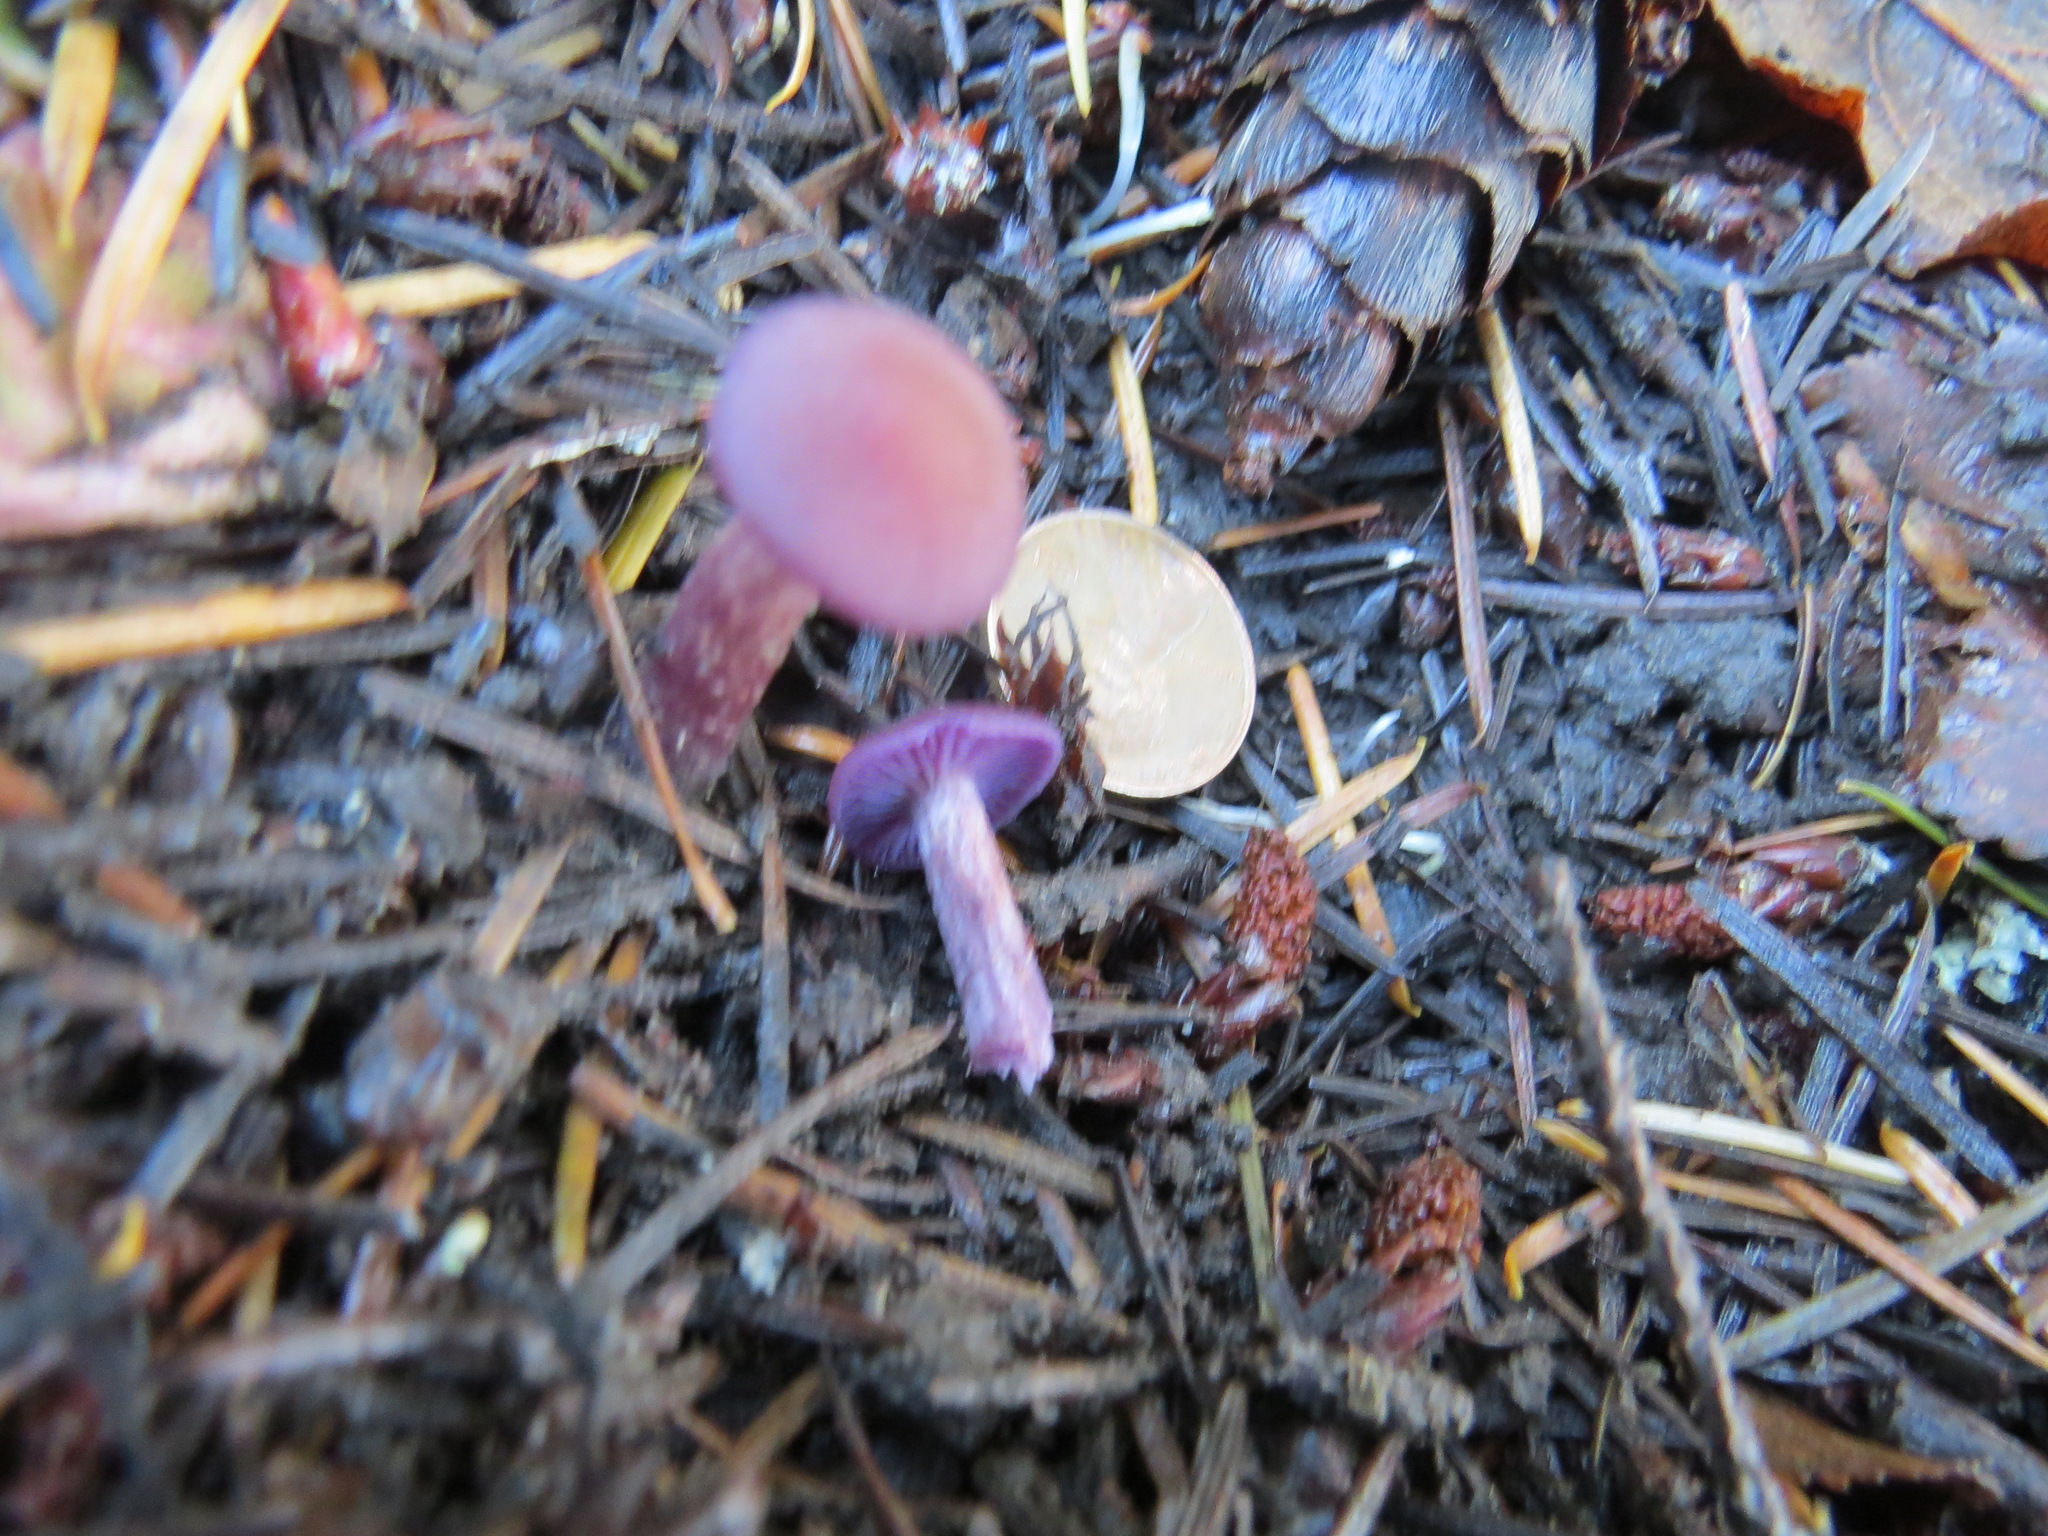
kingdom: Fungi
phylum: Basidiomycota
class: Agaricomycetes
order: Agaricales
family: Hydnangiaceae
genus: Laccaria
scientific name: Laccaria amethysteo-occidentalis
